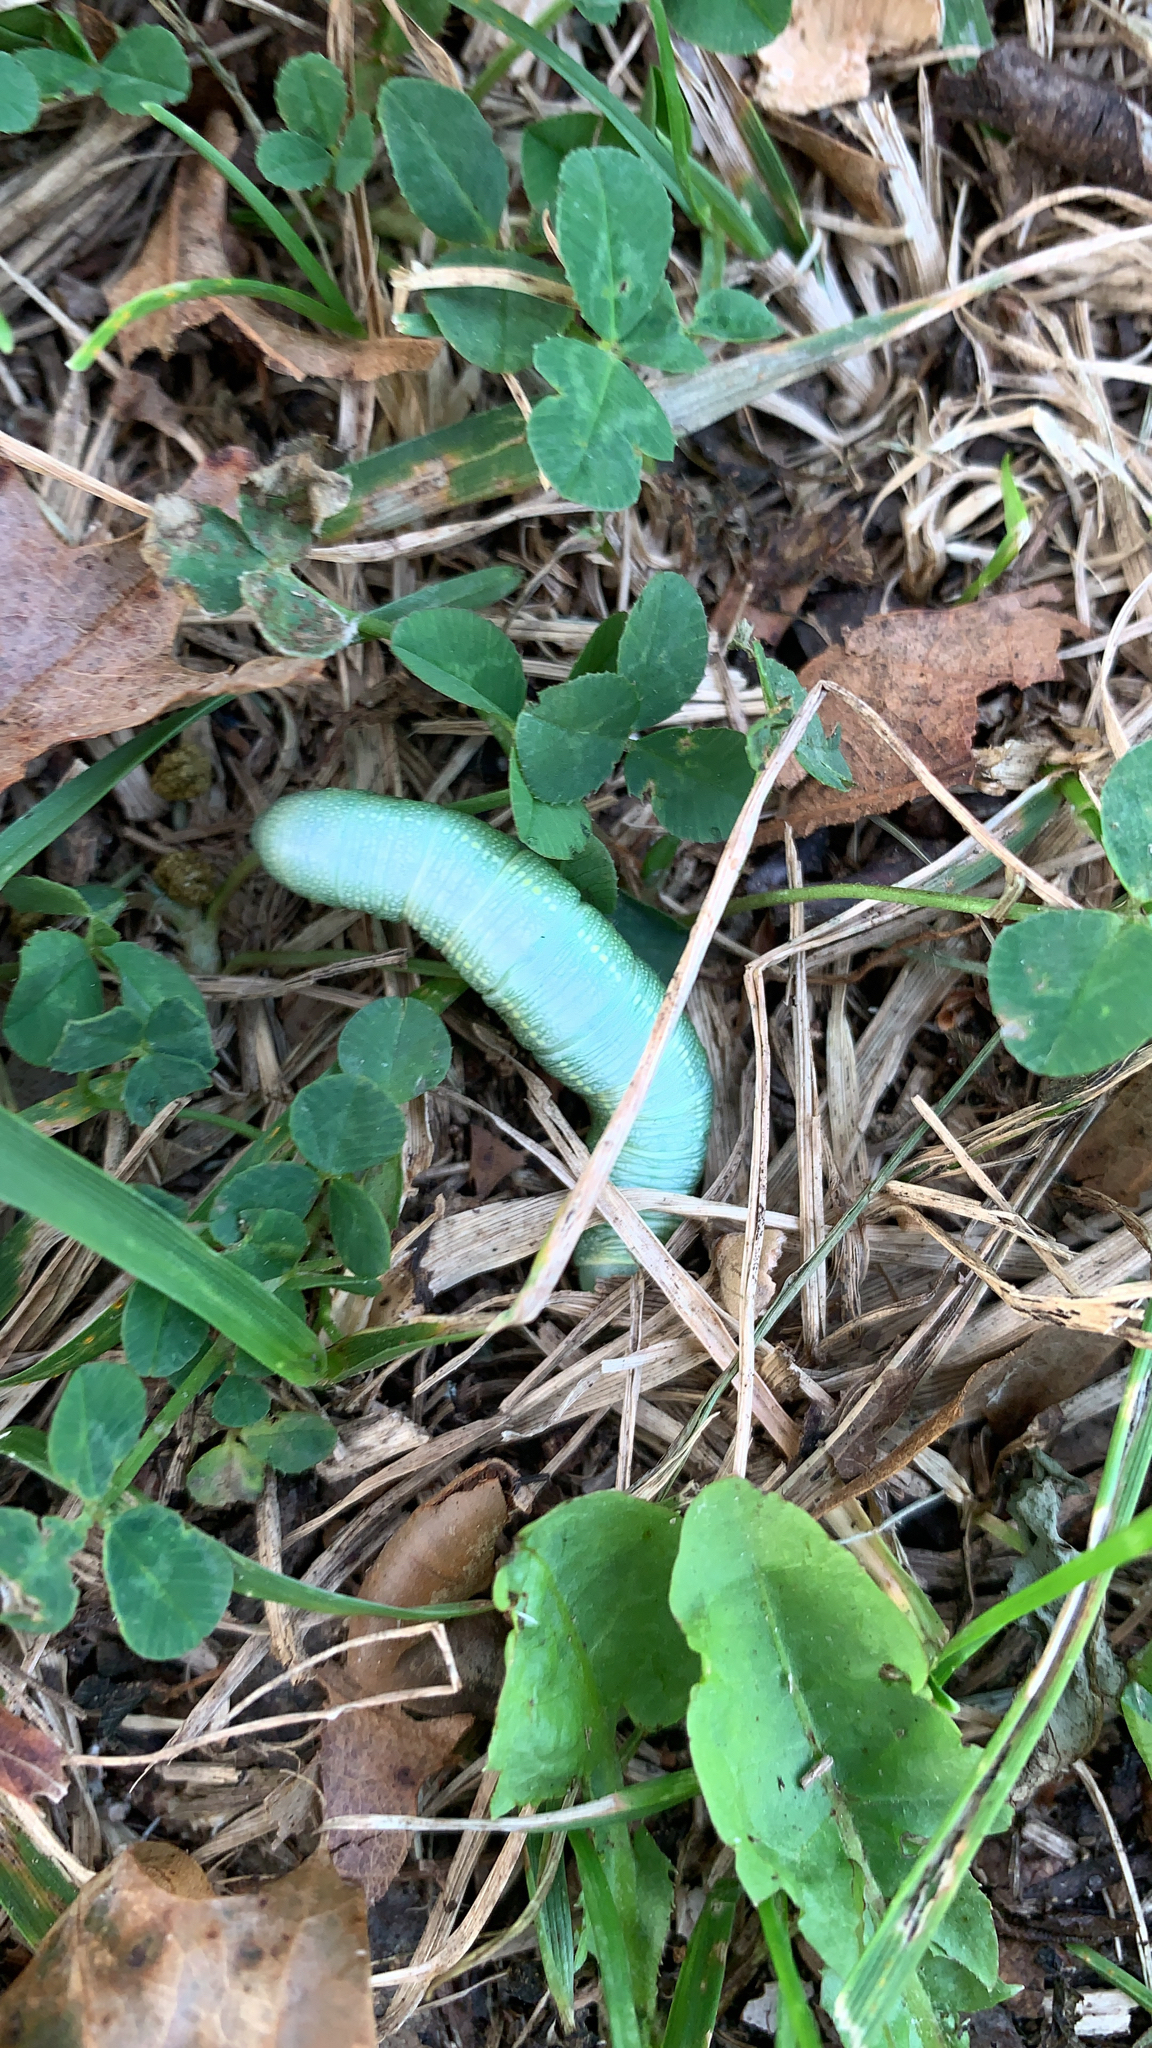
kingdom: Animalia
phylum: Arthropoda
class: Insecta
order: Lepidoptera
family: Notodontidae
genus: Nadata
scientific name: Nadata gibbosa
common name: White-dotted prominent
